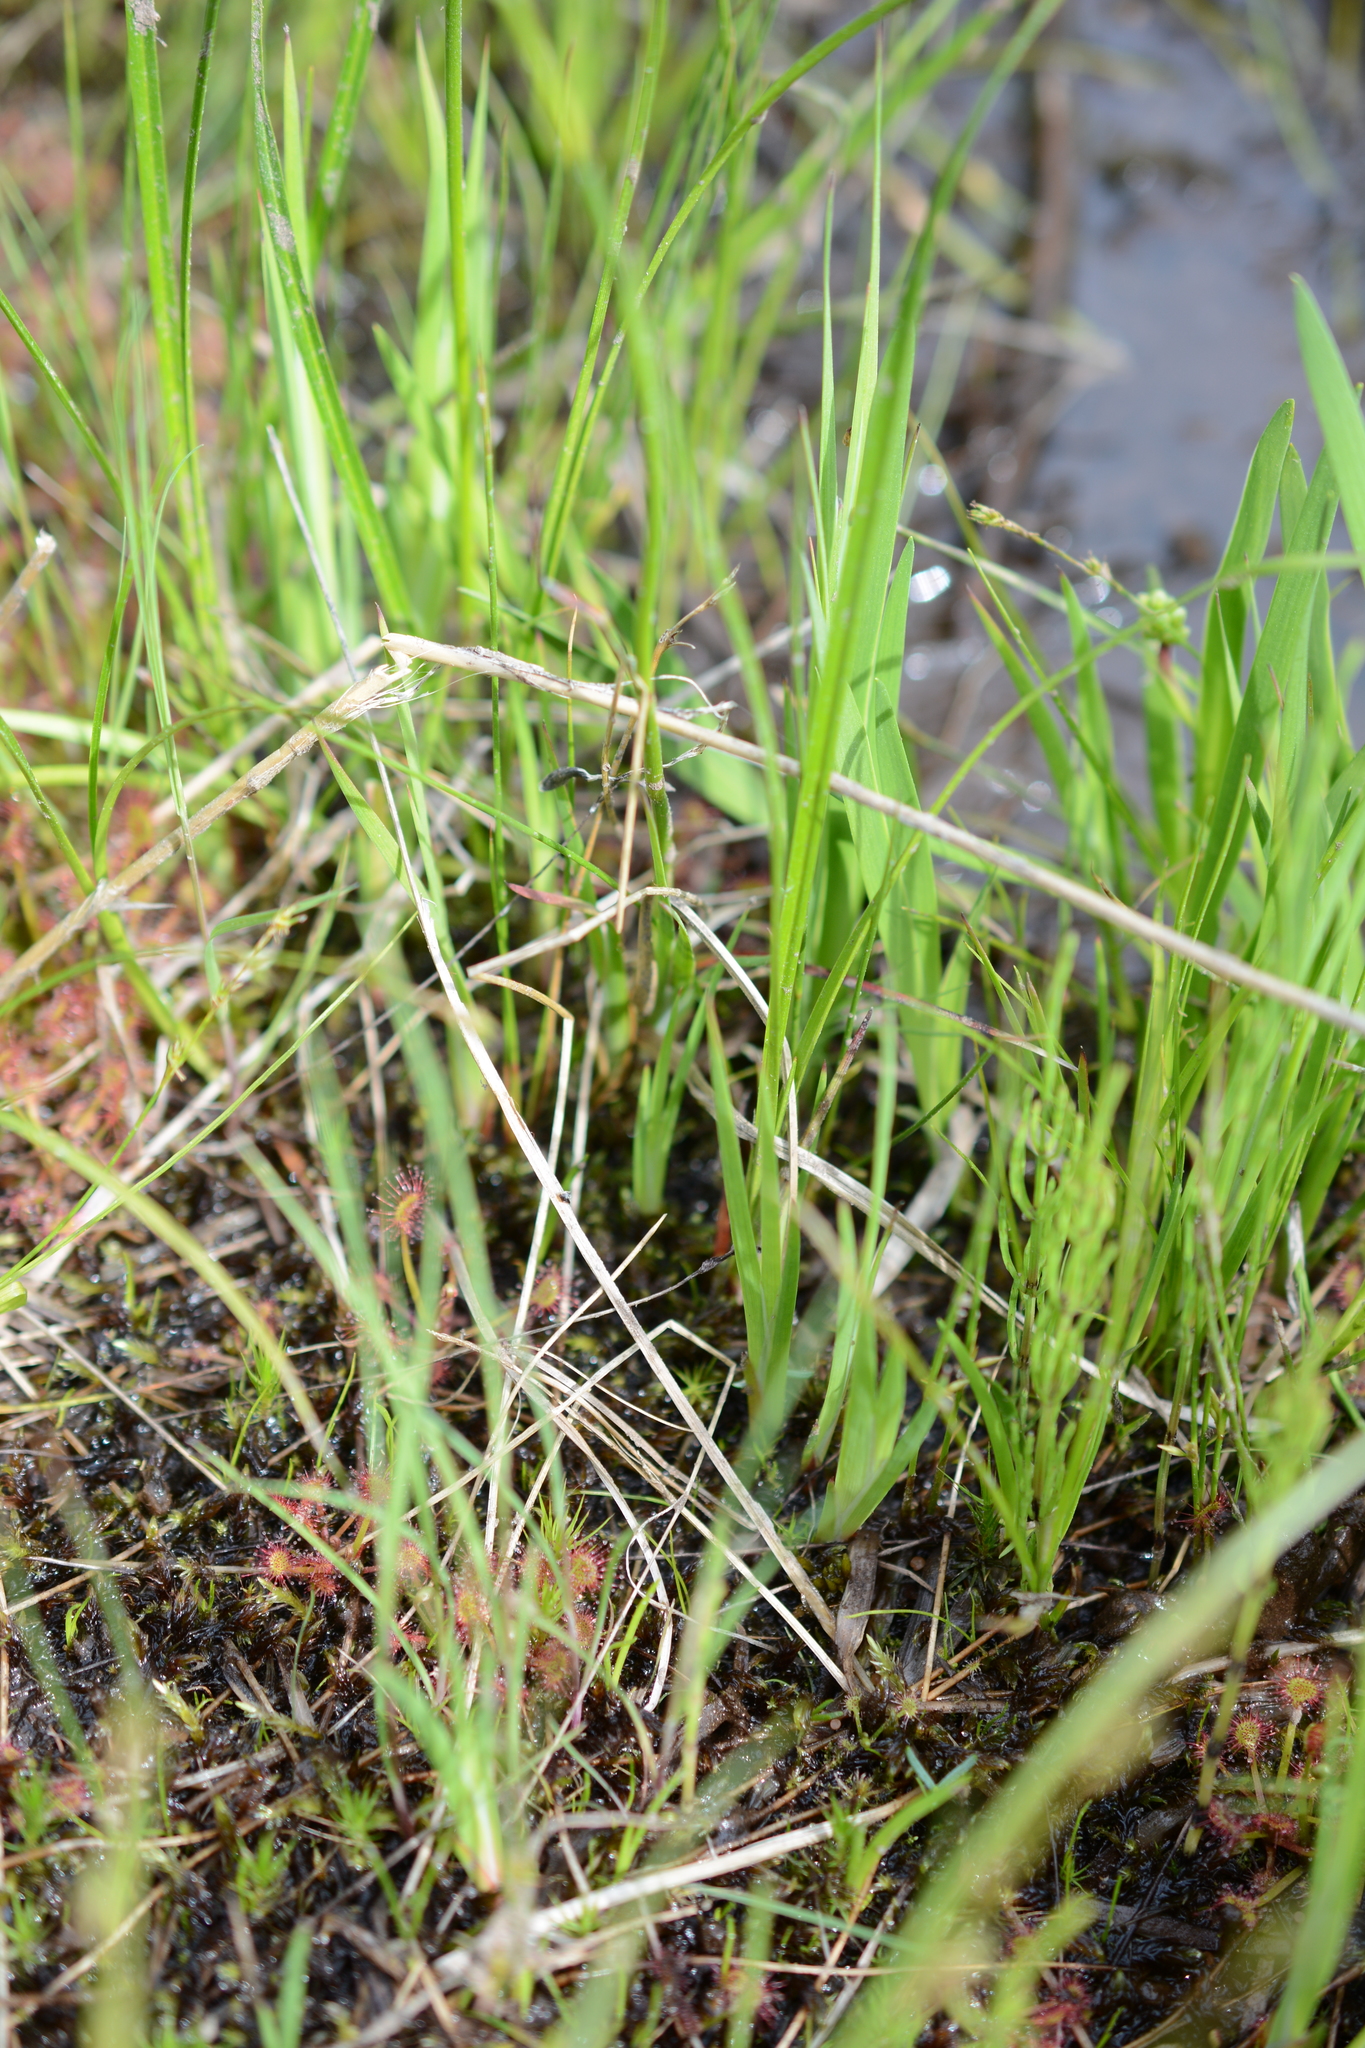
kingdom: Plantae
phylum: Tracheophyta
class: Liliopsida
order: Poales
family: Cyperaceae
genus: Eriophorum
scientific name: Eriophorum angustifolium
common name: Common cottongrass
